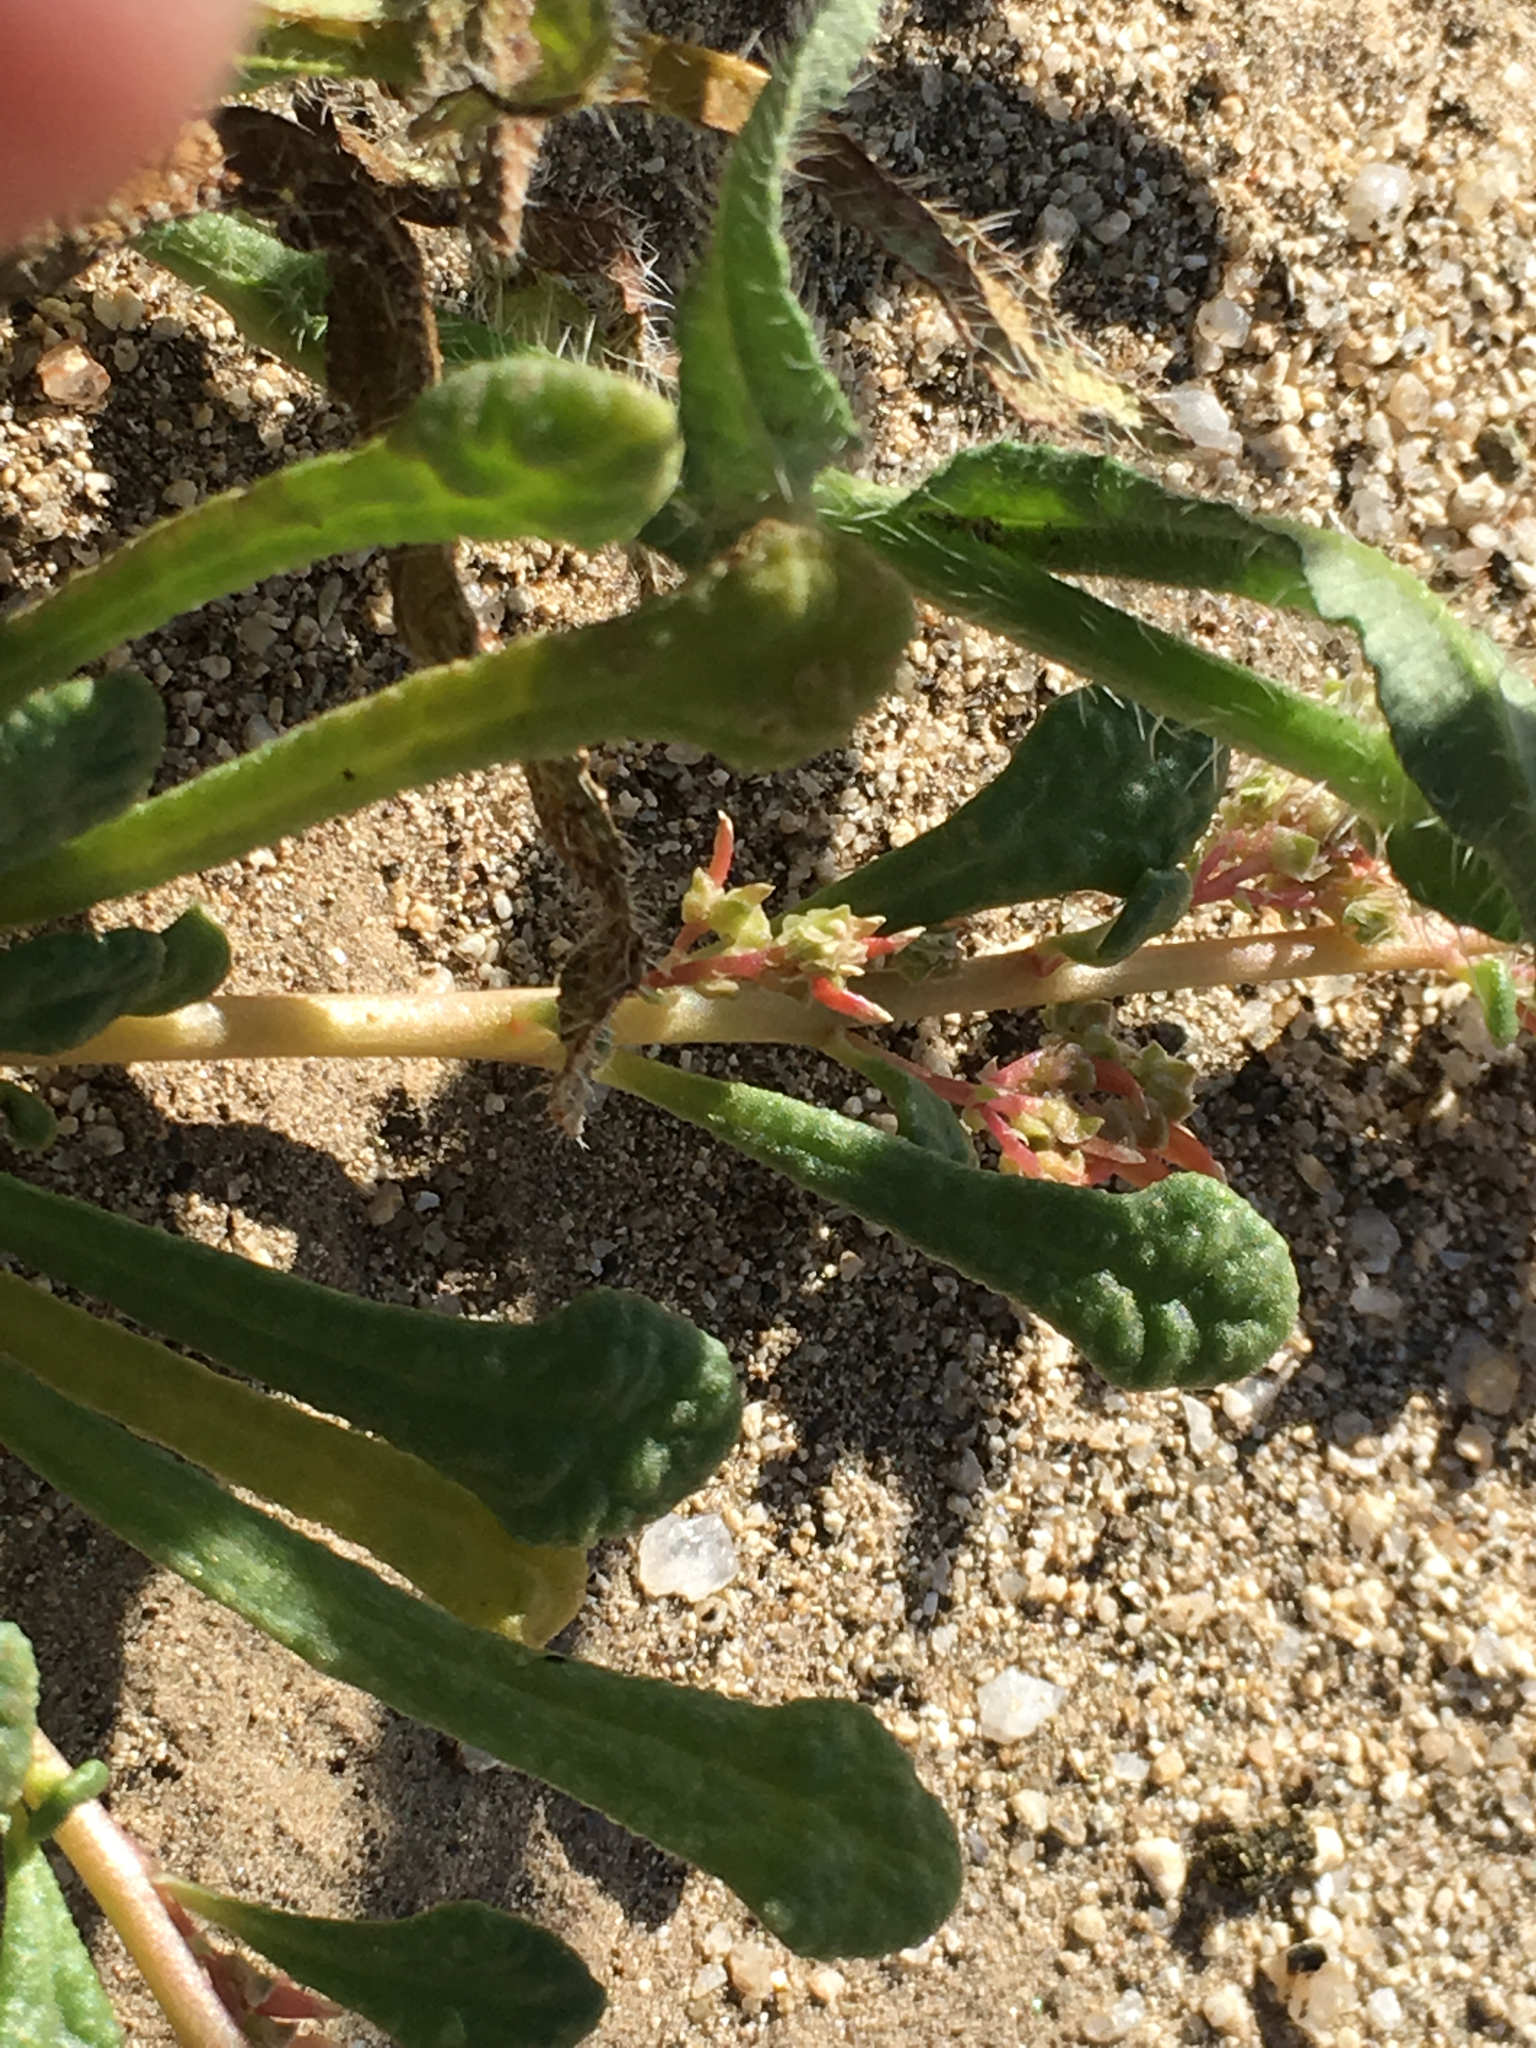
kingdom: Plantae
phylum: Tracheophyta
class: Magnoliopsida
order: Caryophyllales
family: Montiaceae
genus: Calyptridium
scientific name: Calyptridium monandrum
